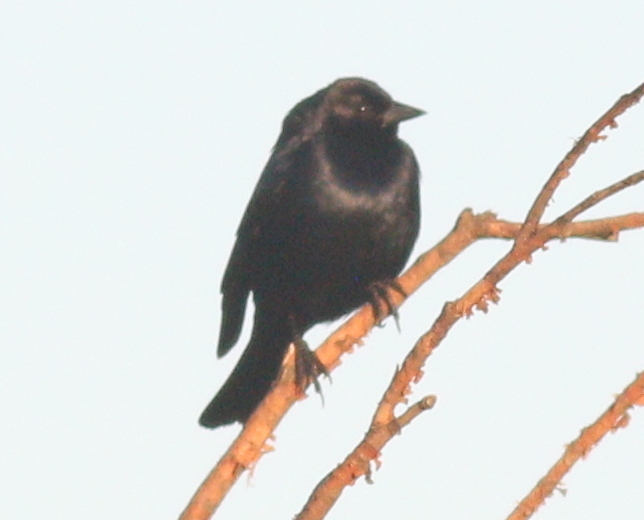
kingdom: Animalia
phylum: Chordata
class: Aves
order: Passeriformes
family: Icteridae
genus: Molothrus
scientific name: Molothrus bonariensis
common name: Shiny cowbird
